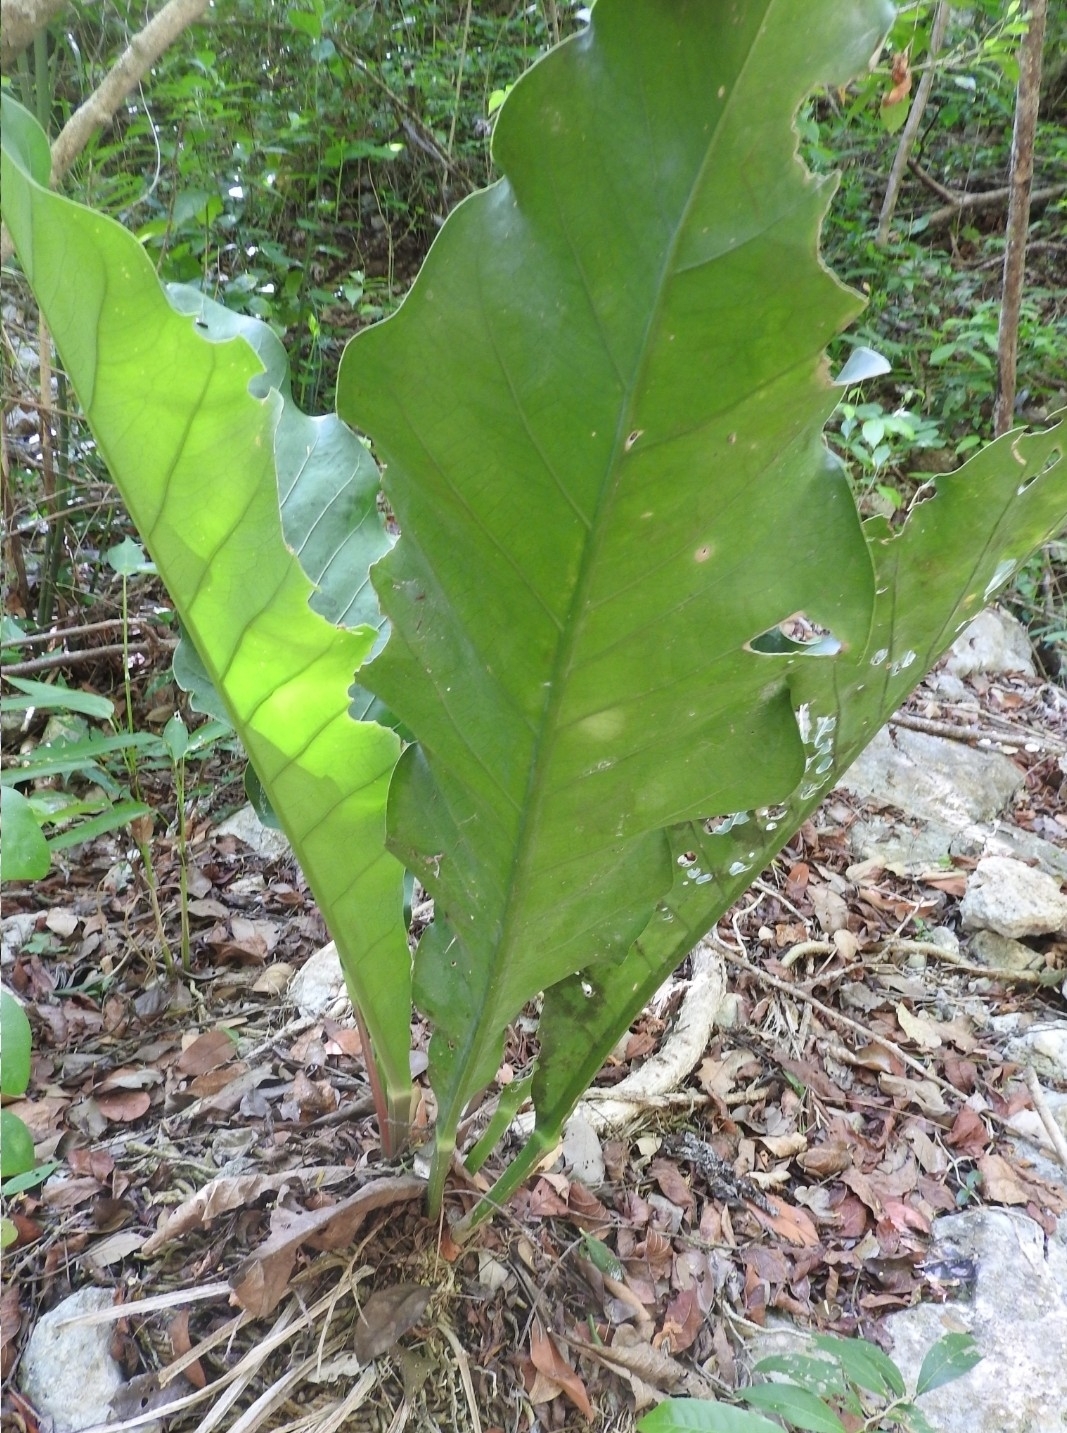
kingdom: Plantae
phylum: Tracheophyta
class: Liliopsida
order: Alismatales
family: Araceae
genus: Anthurium
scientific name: Anthurium schlechtendalii
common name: Laceleaf
